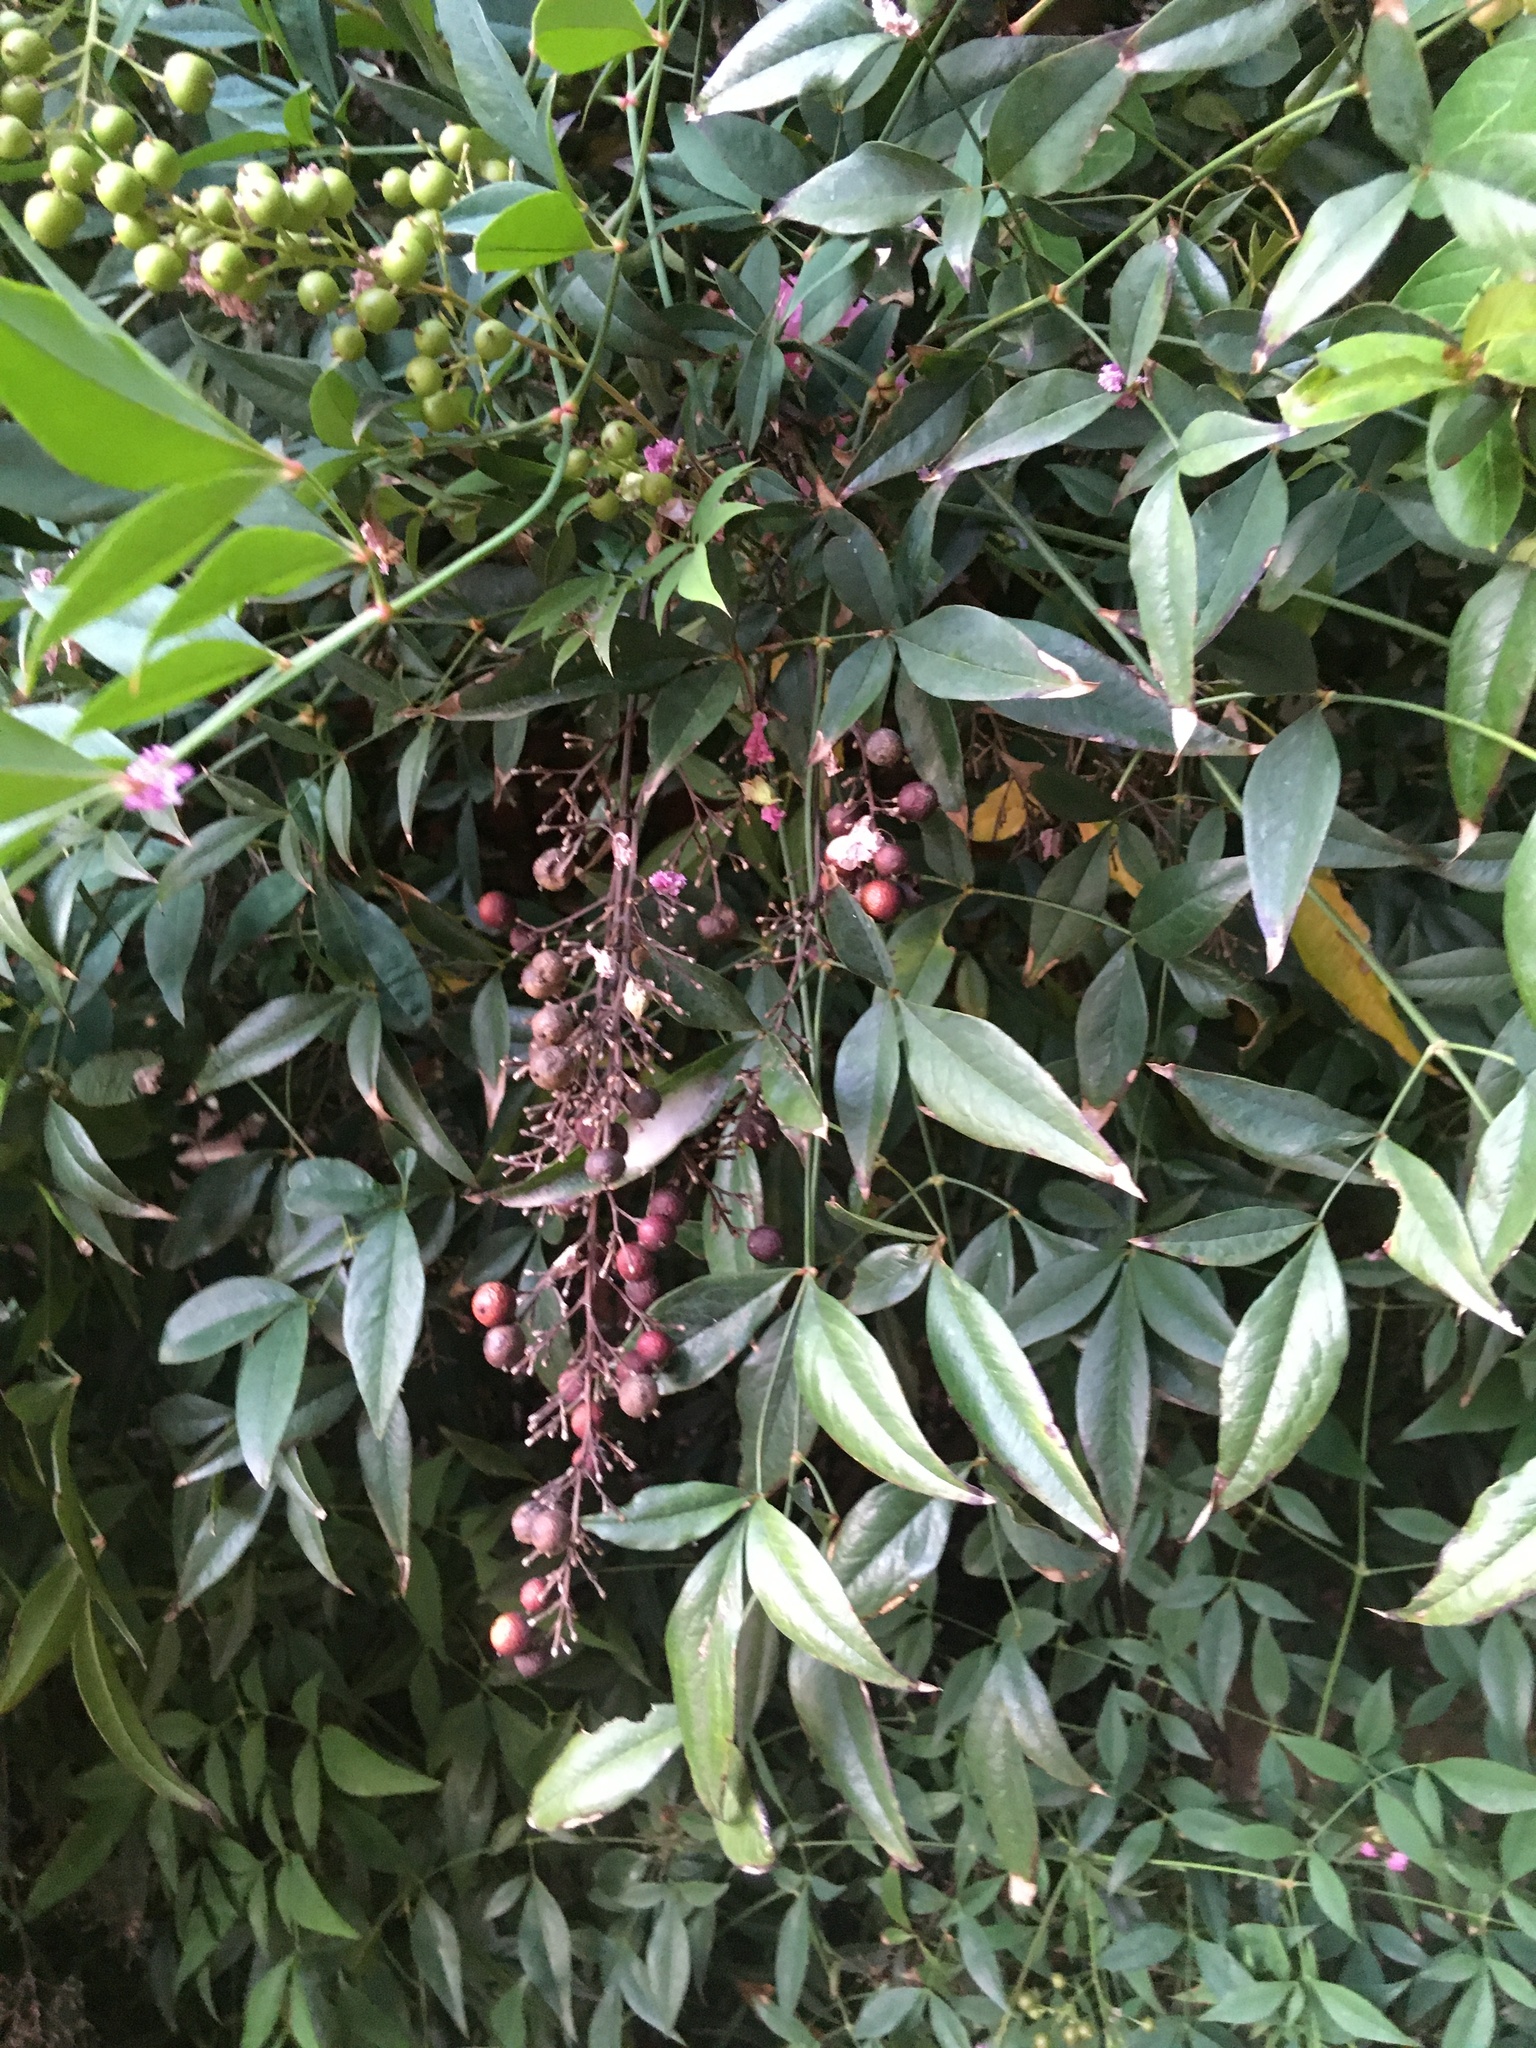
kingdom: Plantae
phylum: Tracheophyta
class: Magnoliopsida
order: Ranunculales
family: Berberidaceae
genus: Nandina
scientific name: Nandina domestica
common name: Sacred bamboo
